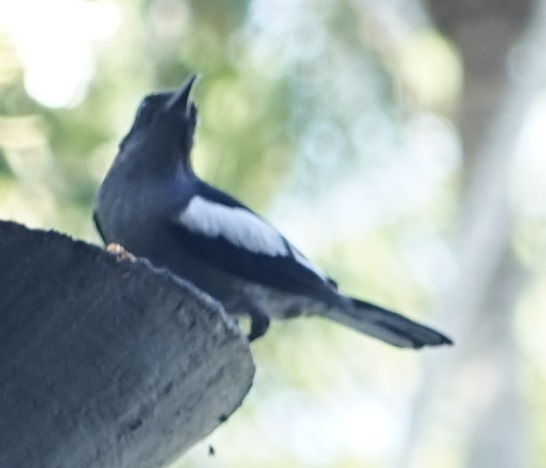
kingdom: Animalia
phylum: Chordata
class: Aves
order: Passeriformes
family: Muscicapidae
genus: Copsychus
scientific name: Copsychus saularis
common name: Oriental magpie-robin
